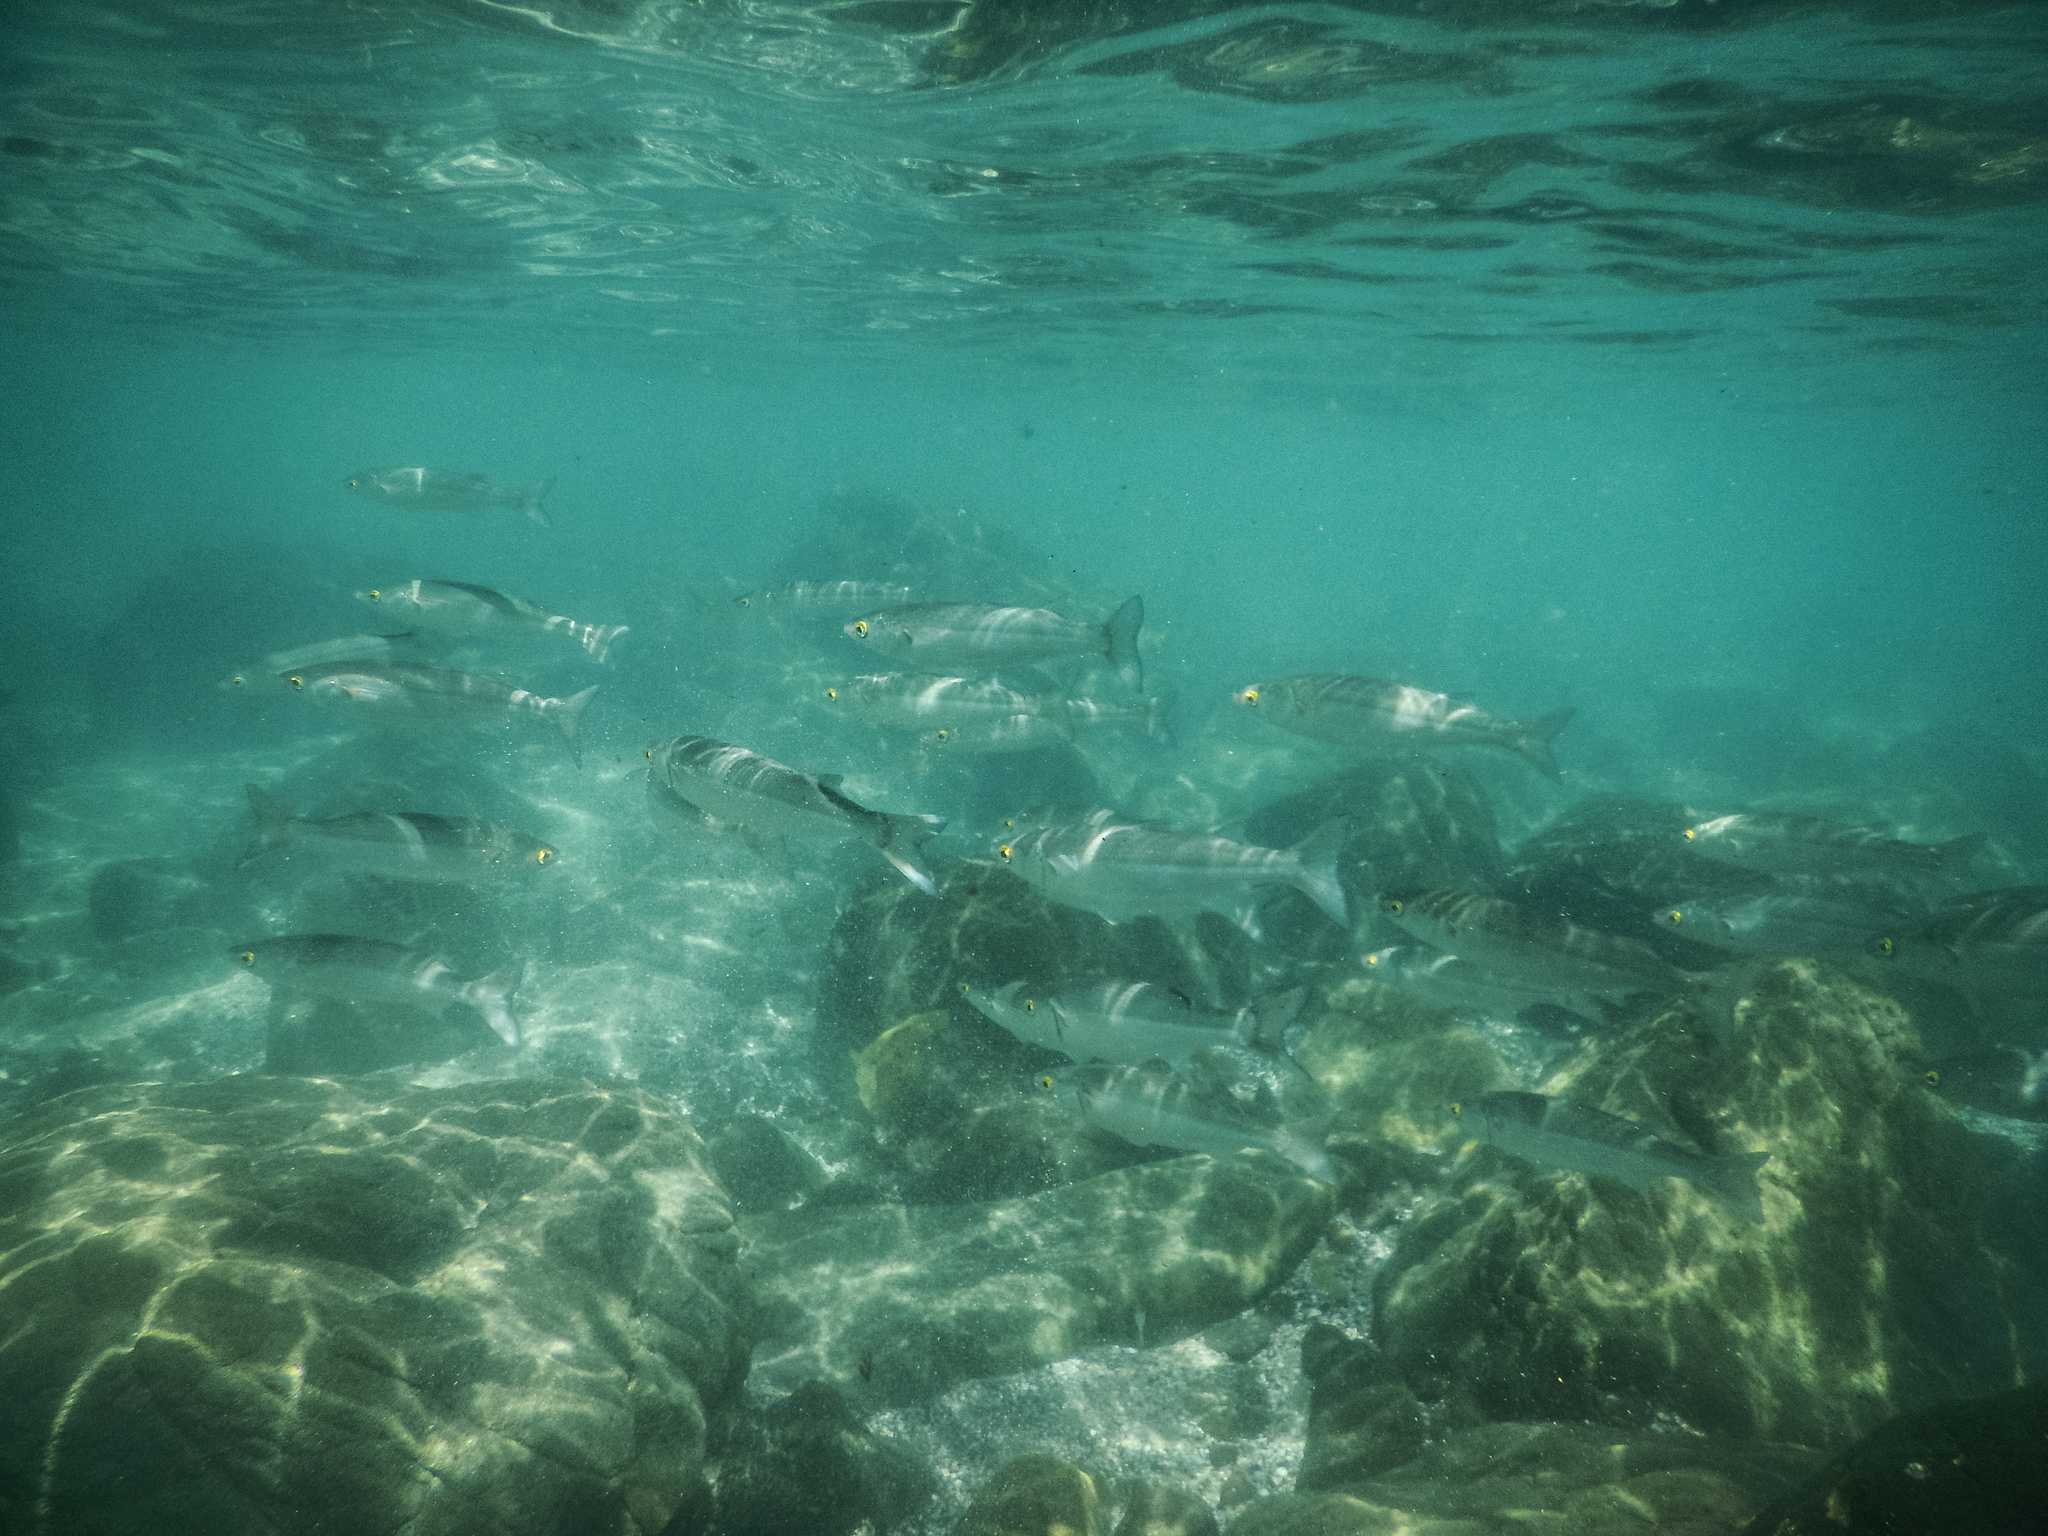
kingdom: Animalia
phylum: Chordata
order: Mugiliformes
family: Mugilidae
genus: Aldrichetta
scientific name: Aldrichetta forsteri
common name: Yellow-eye mullet
